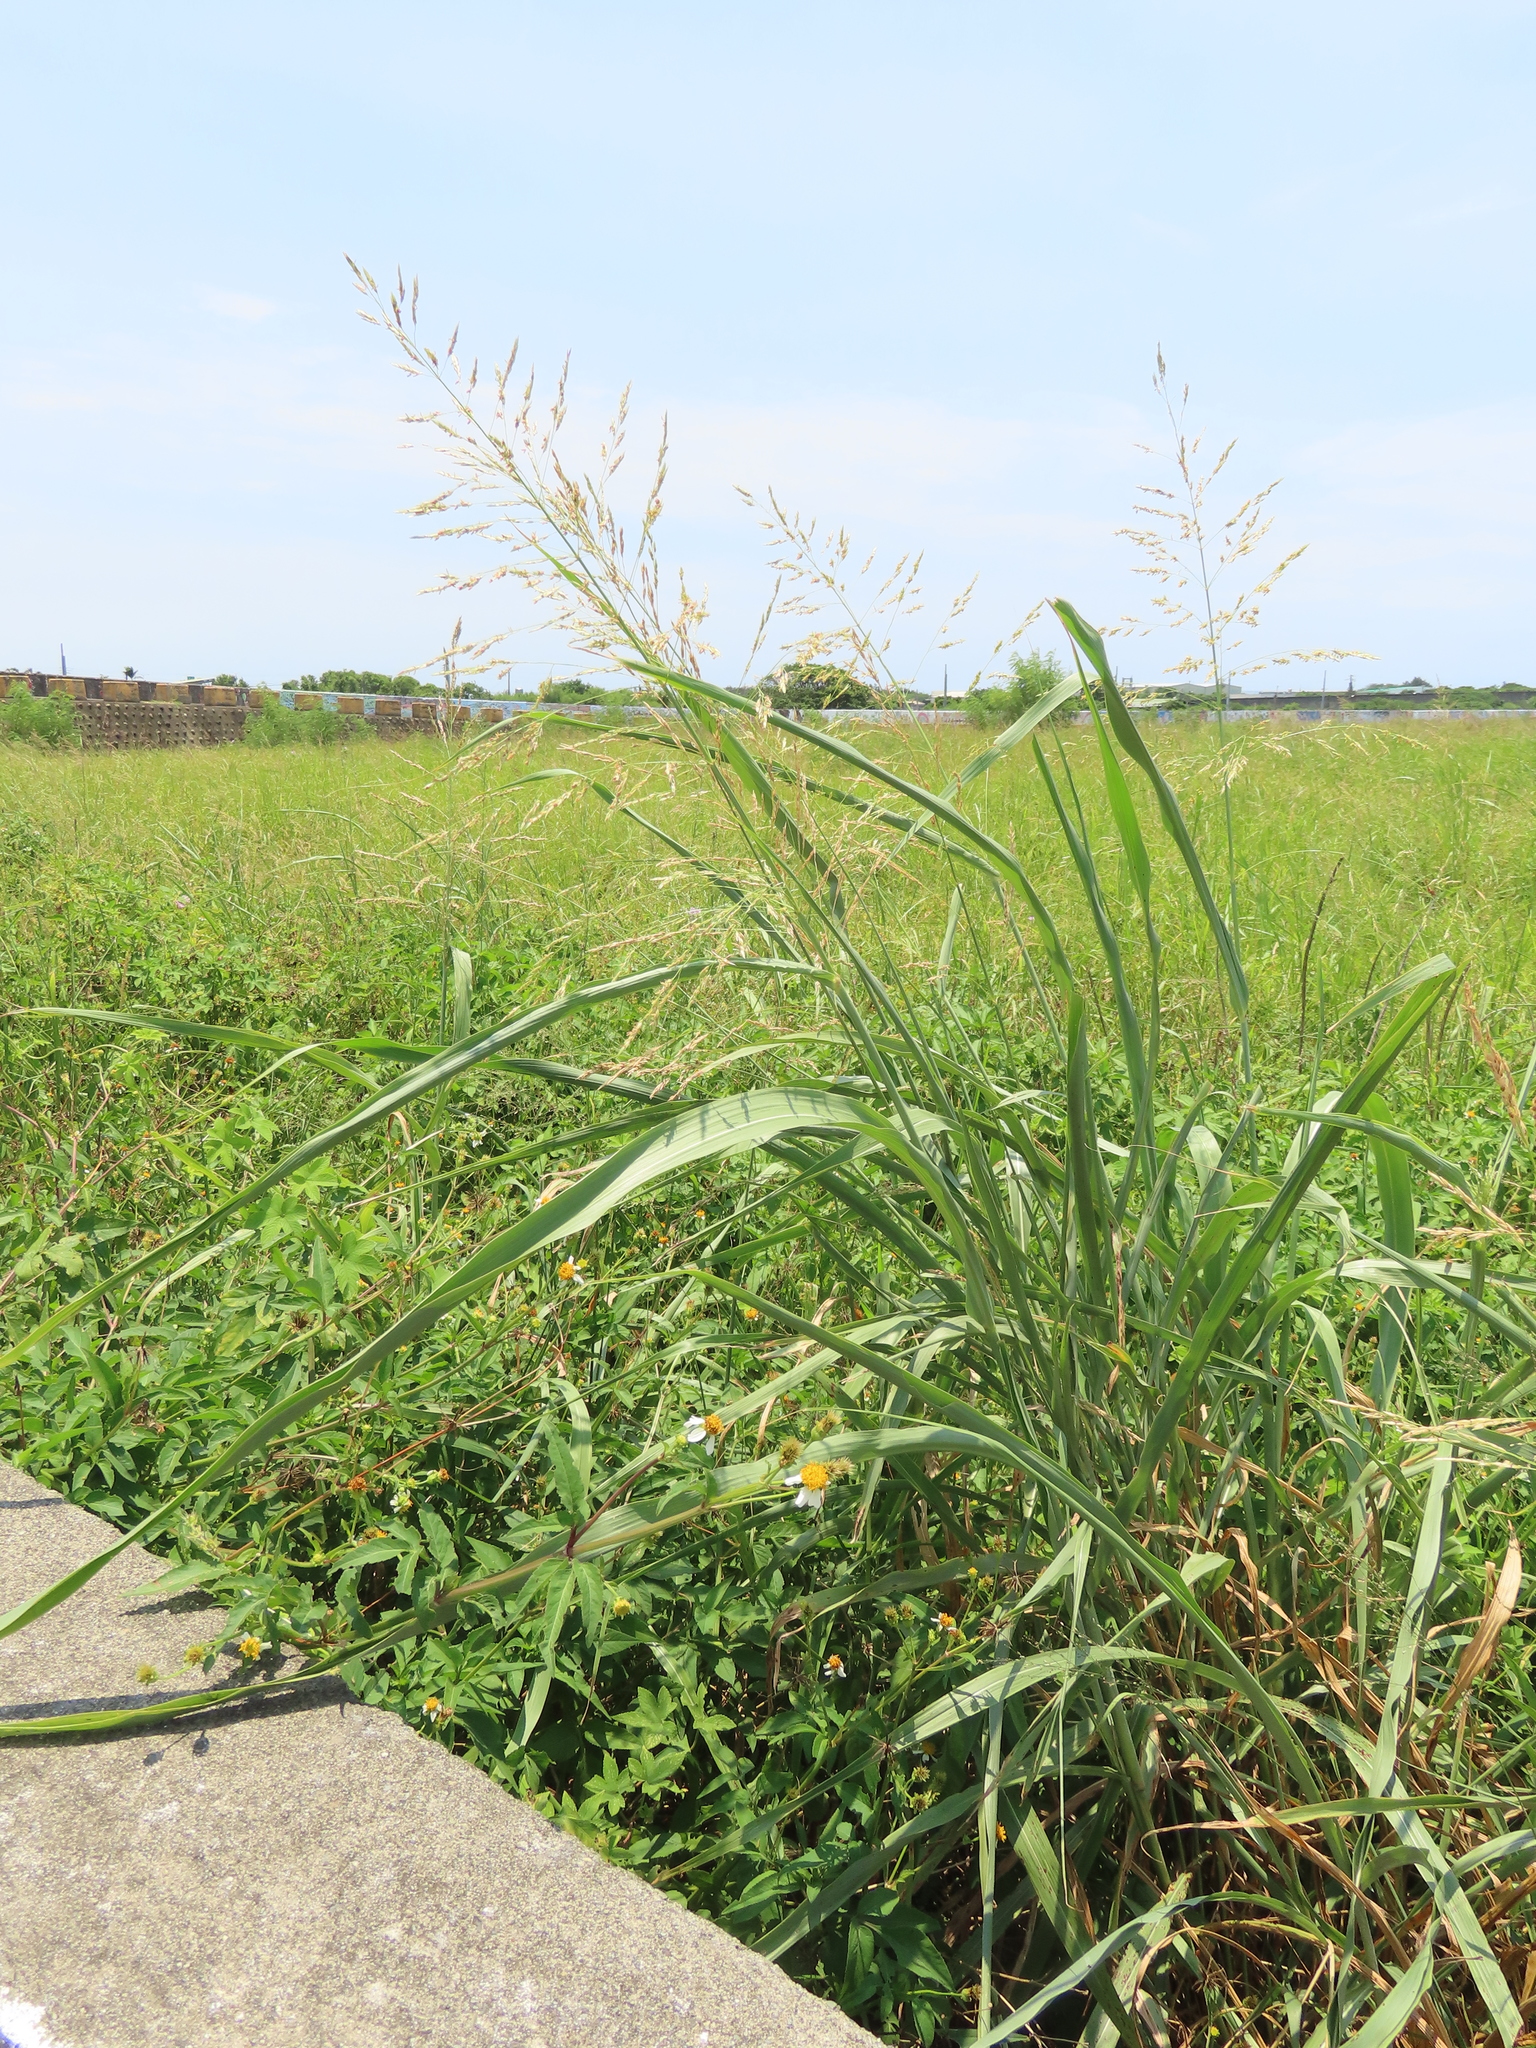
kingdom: Plantae
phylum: Tracheophyta
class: Liliopsida
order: Poales
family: Poaceae
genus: Sorghum
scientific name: Sorghum propinquum
